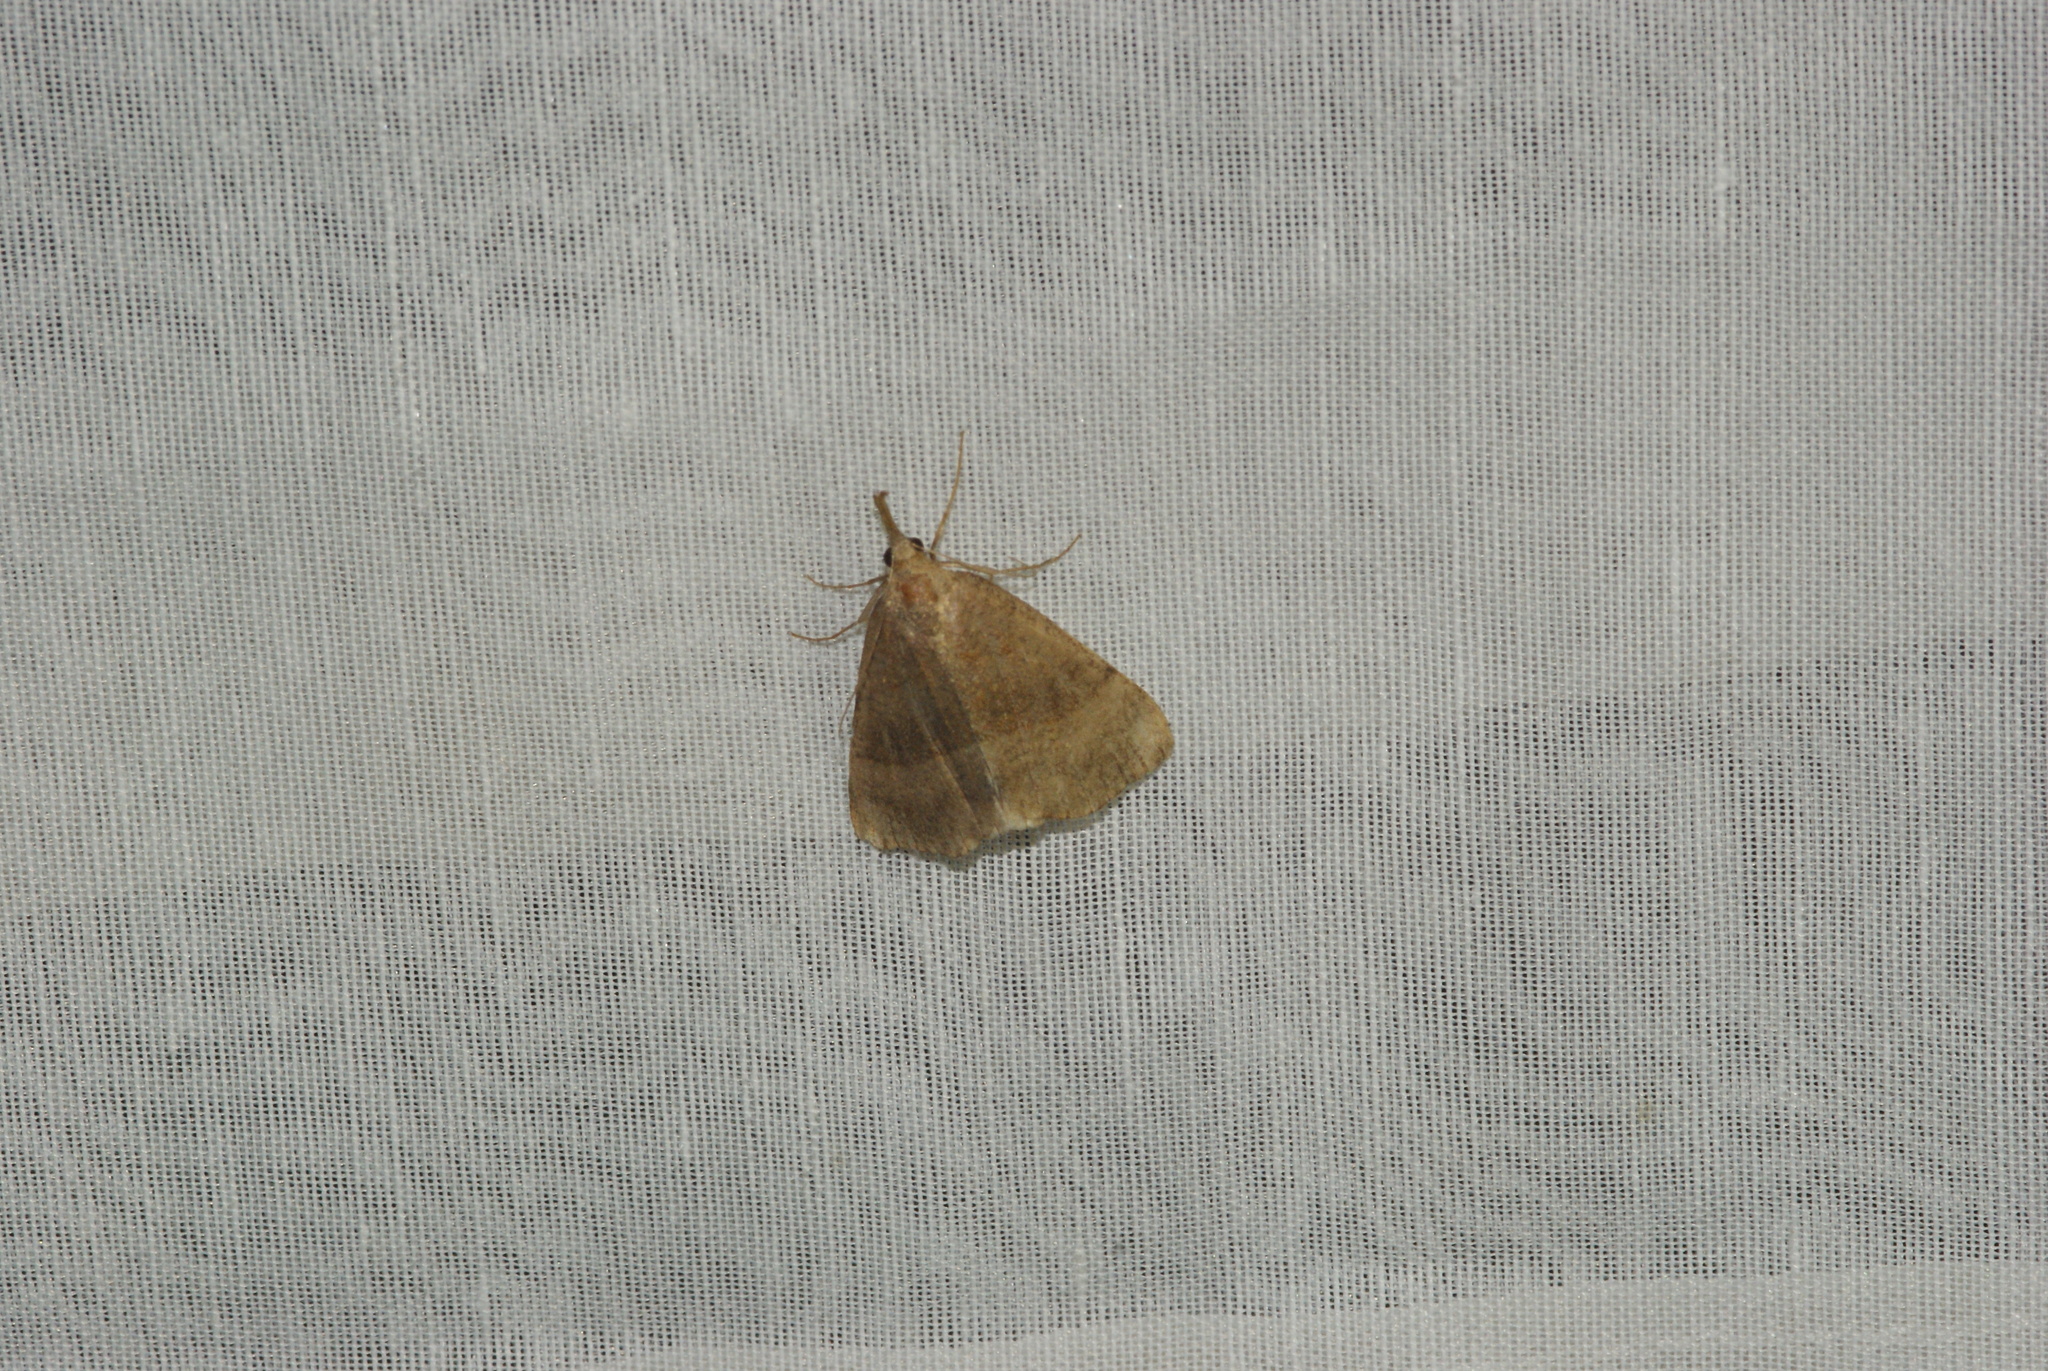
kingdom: Animalia
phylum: Arthropoda
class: Insecta
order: Lepidoptera
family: Erebidae
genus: Hypena
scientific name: Hypena proboscidalis
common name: Snout
